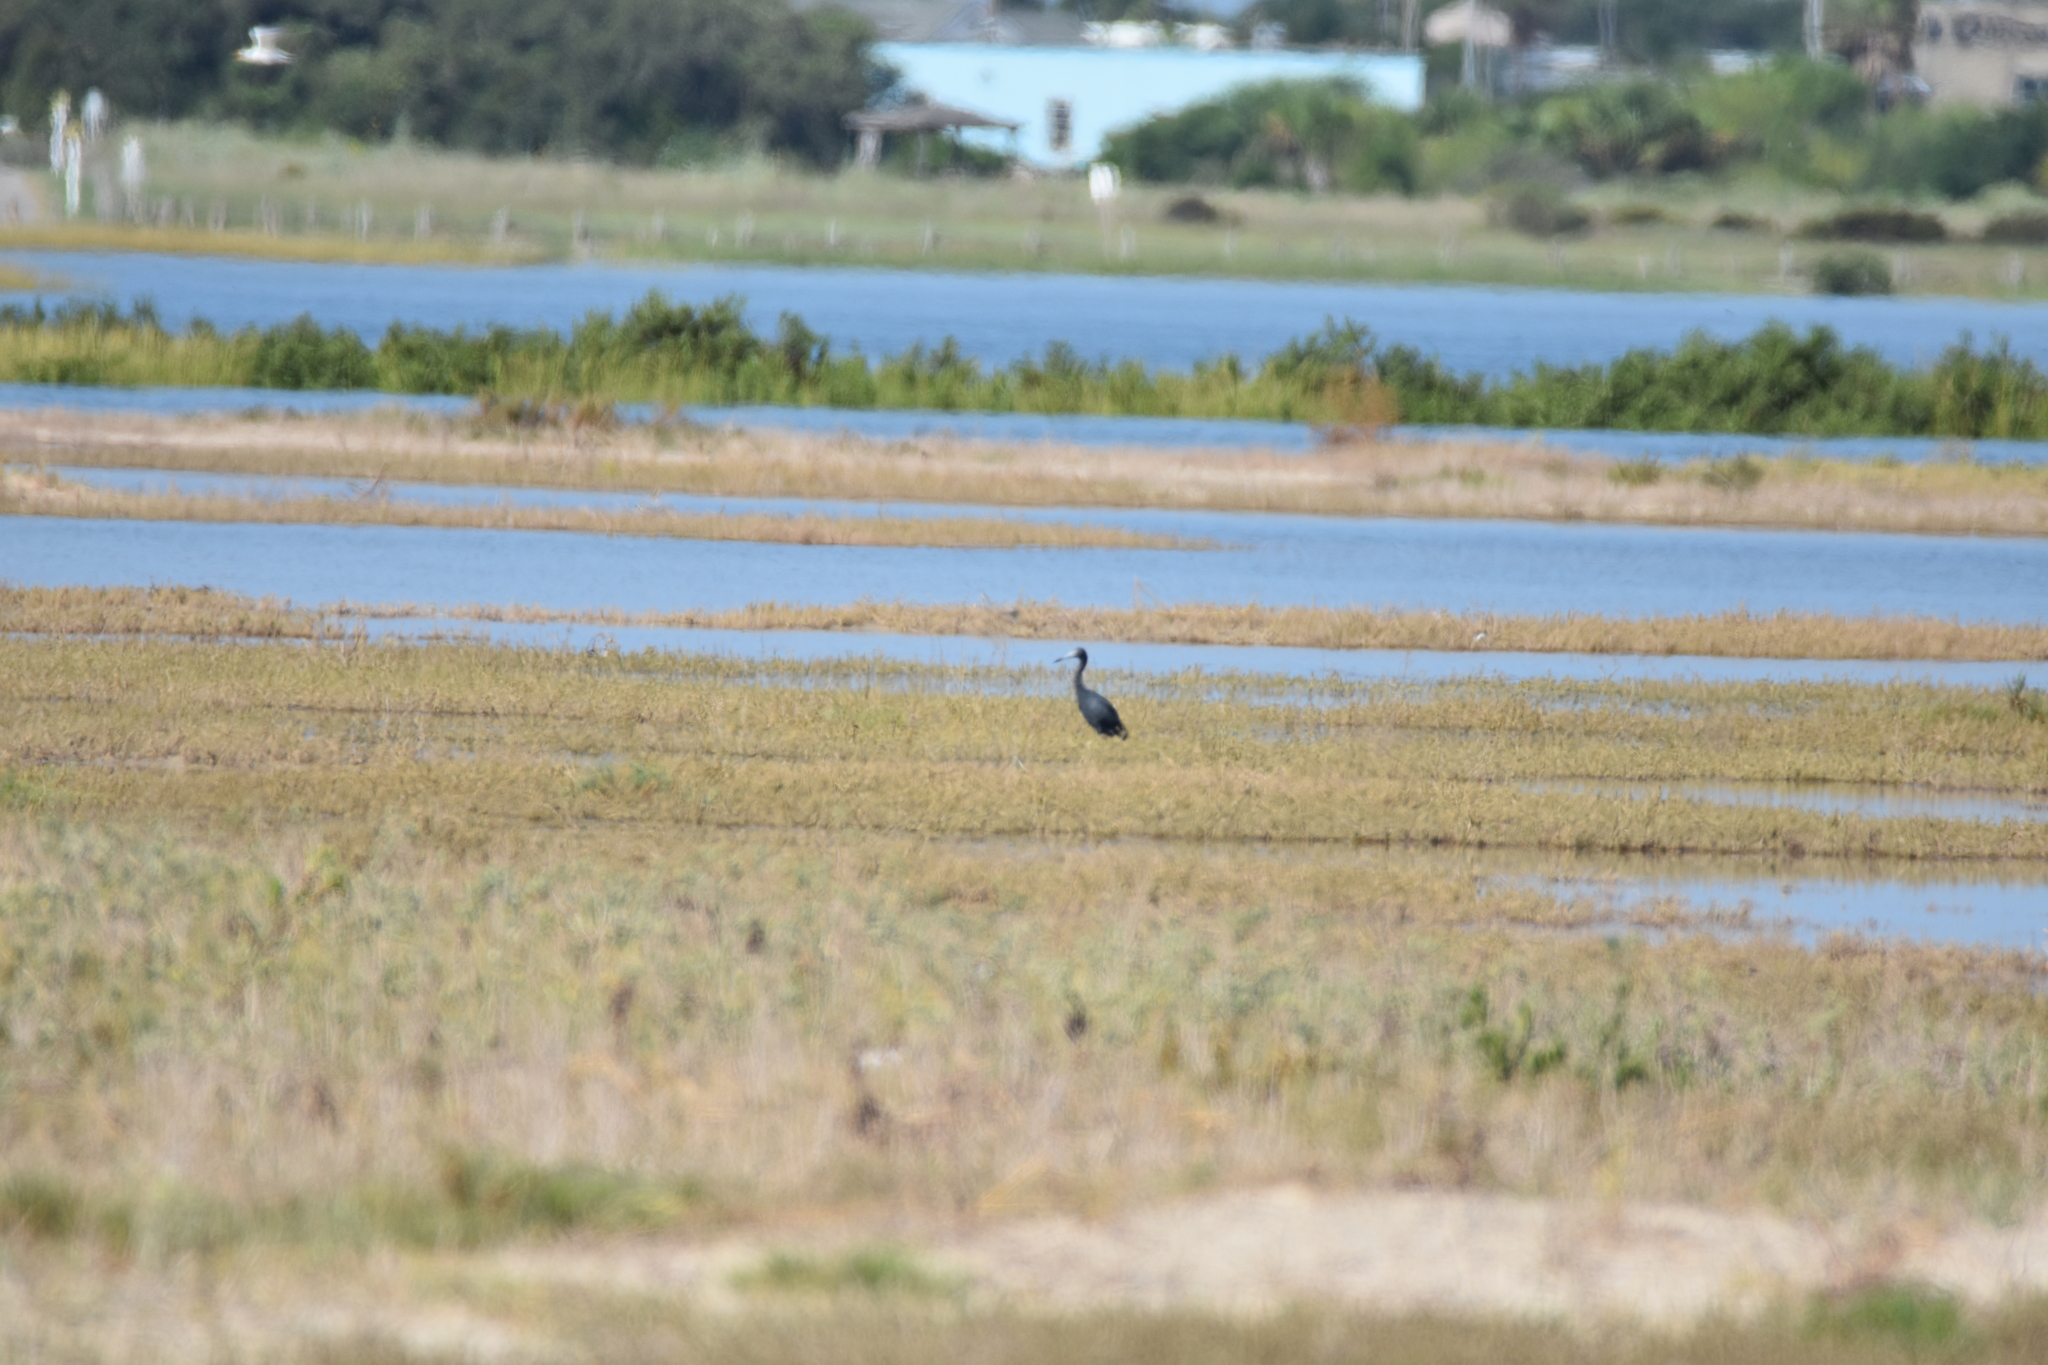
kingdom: Animalia
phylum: Chordata
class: Aves
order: Pelecaniformes
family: Ardeidae
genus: Egretta
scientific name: Egretta caerulea
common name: Little blue heron
